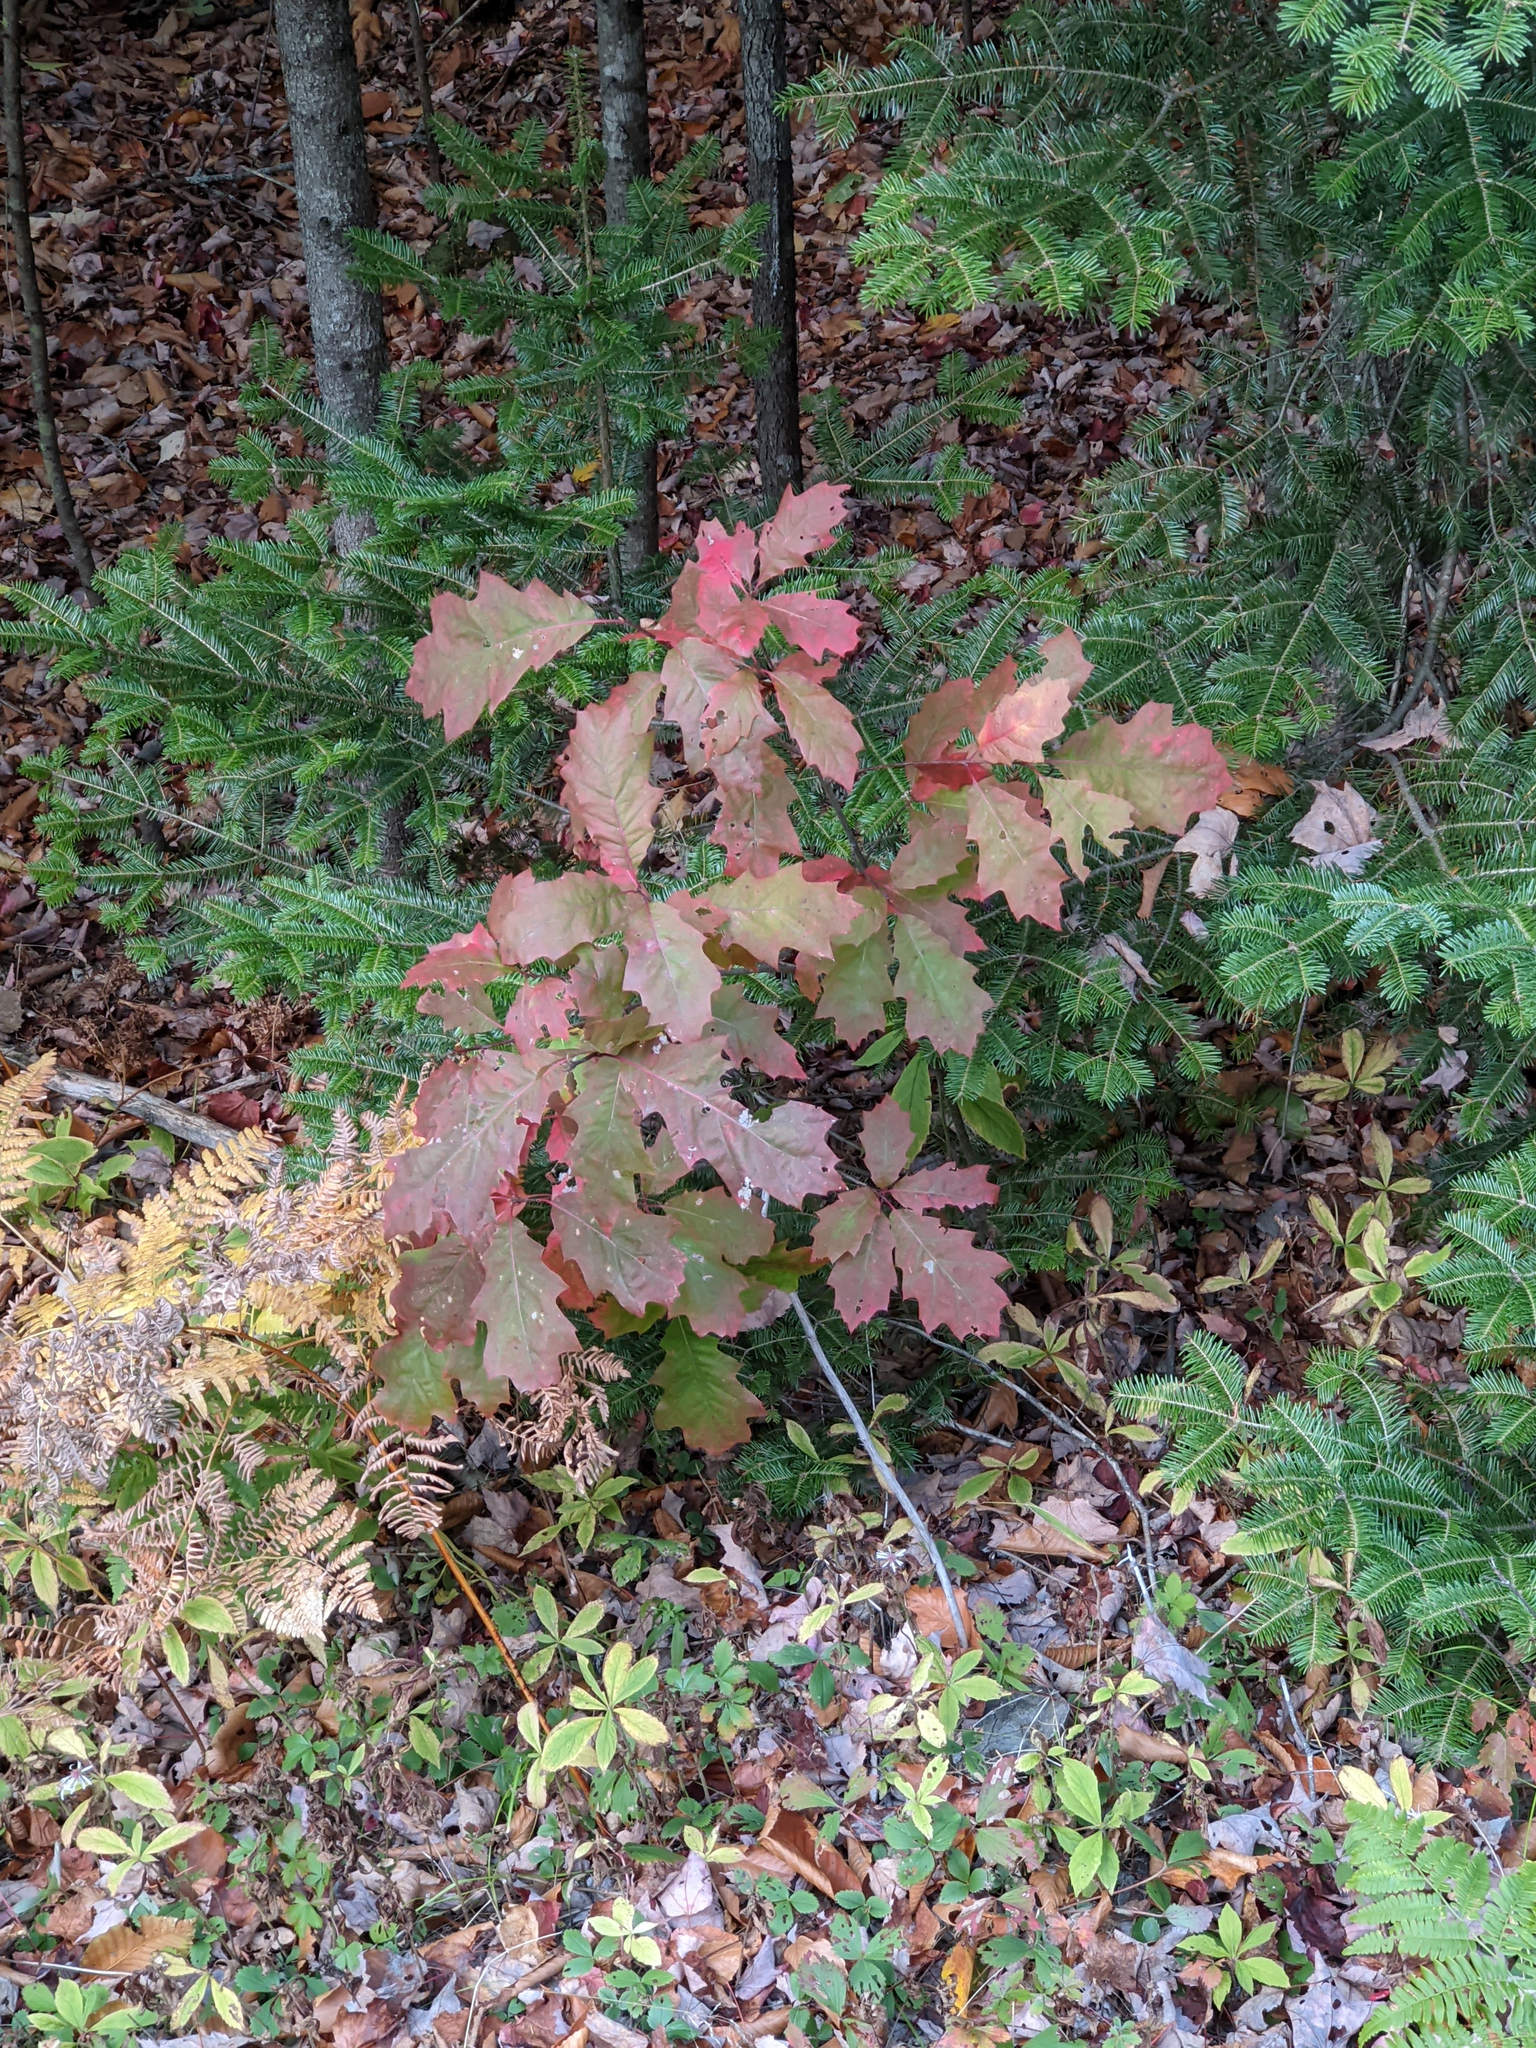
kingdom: Plantae
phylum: Tracheophyta
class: Pinopsida
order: Pinales
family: Pinaceae
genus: Abies
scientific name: Abies balsamea
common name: Balsam fir
